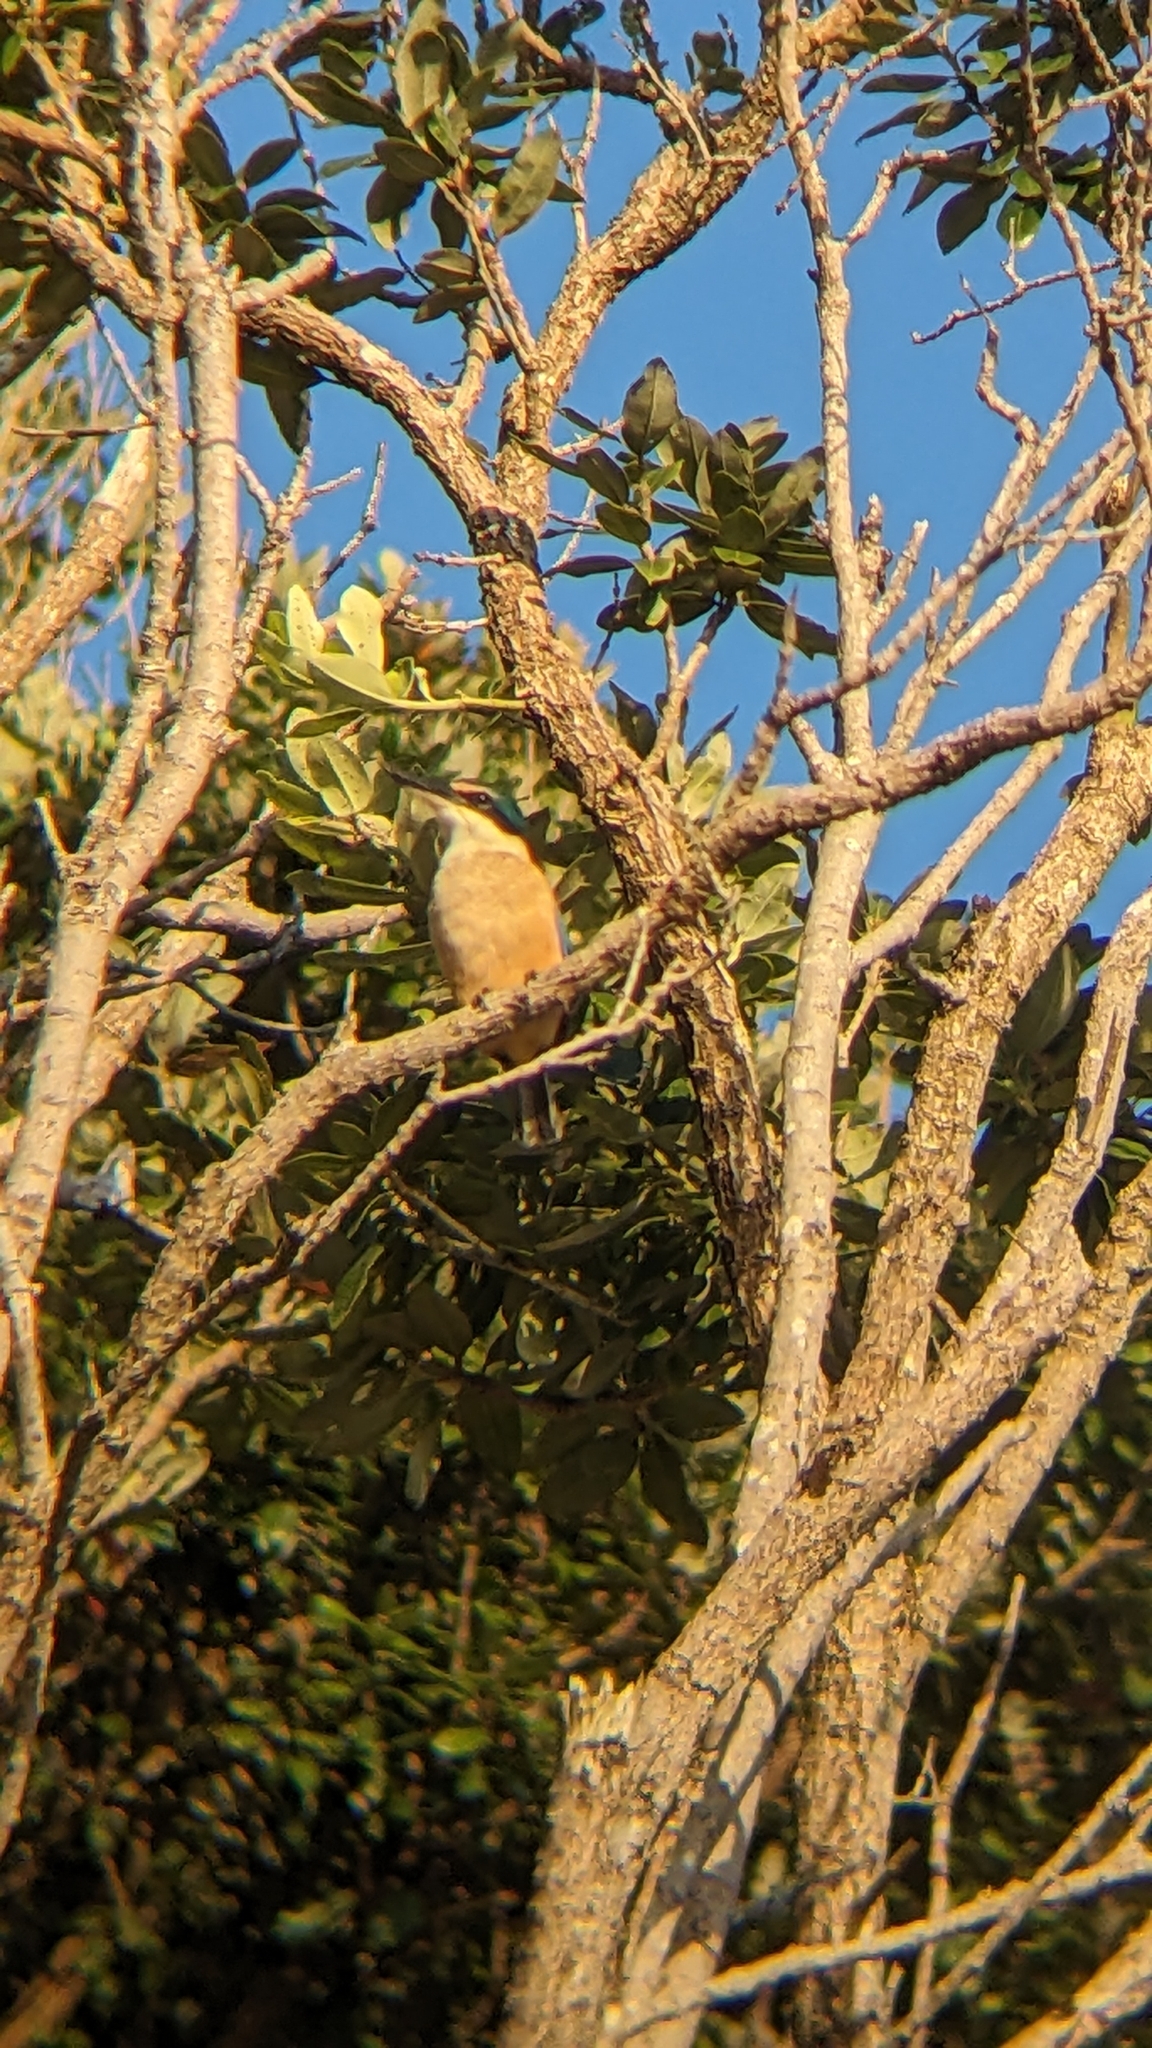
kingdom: Animalia
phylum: Chordata
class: Aves
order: Coraciiformes
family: Alcedinidae
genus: Todiramphus
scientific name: Todiramphus sanctus
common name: Sacred kingfisher
